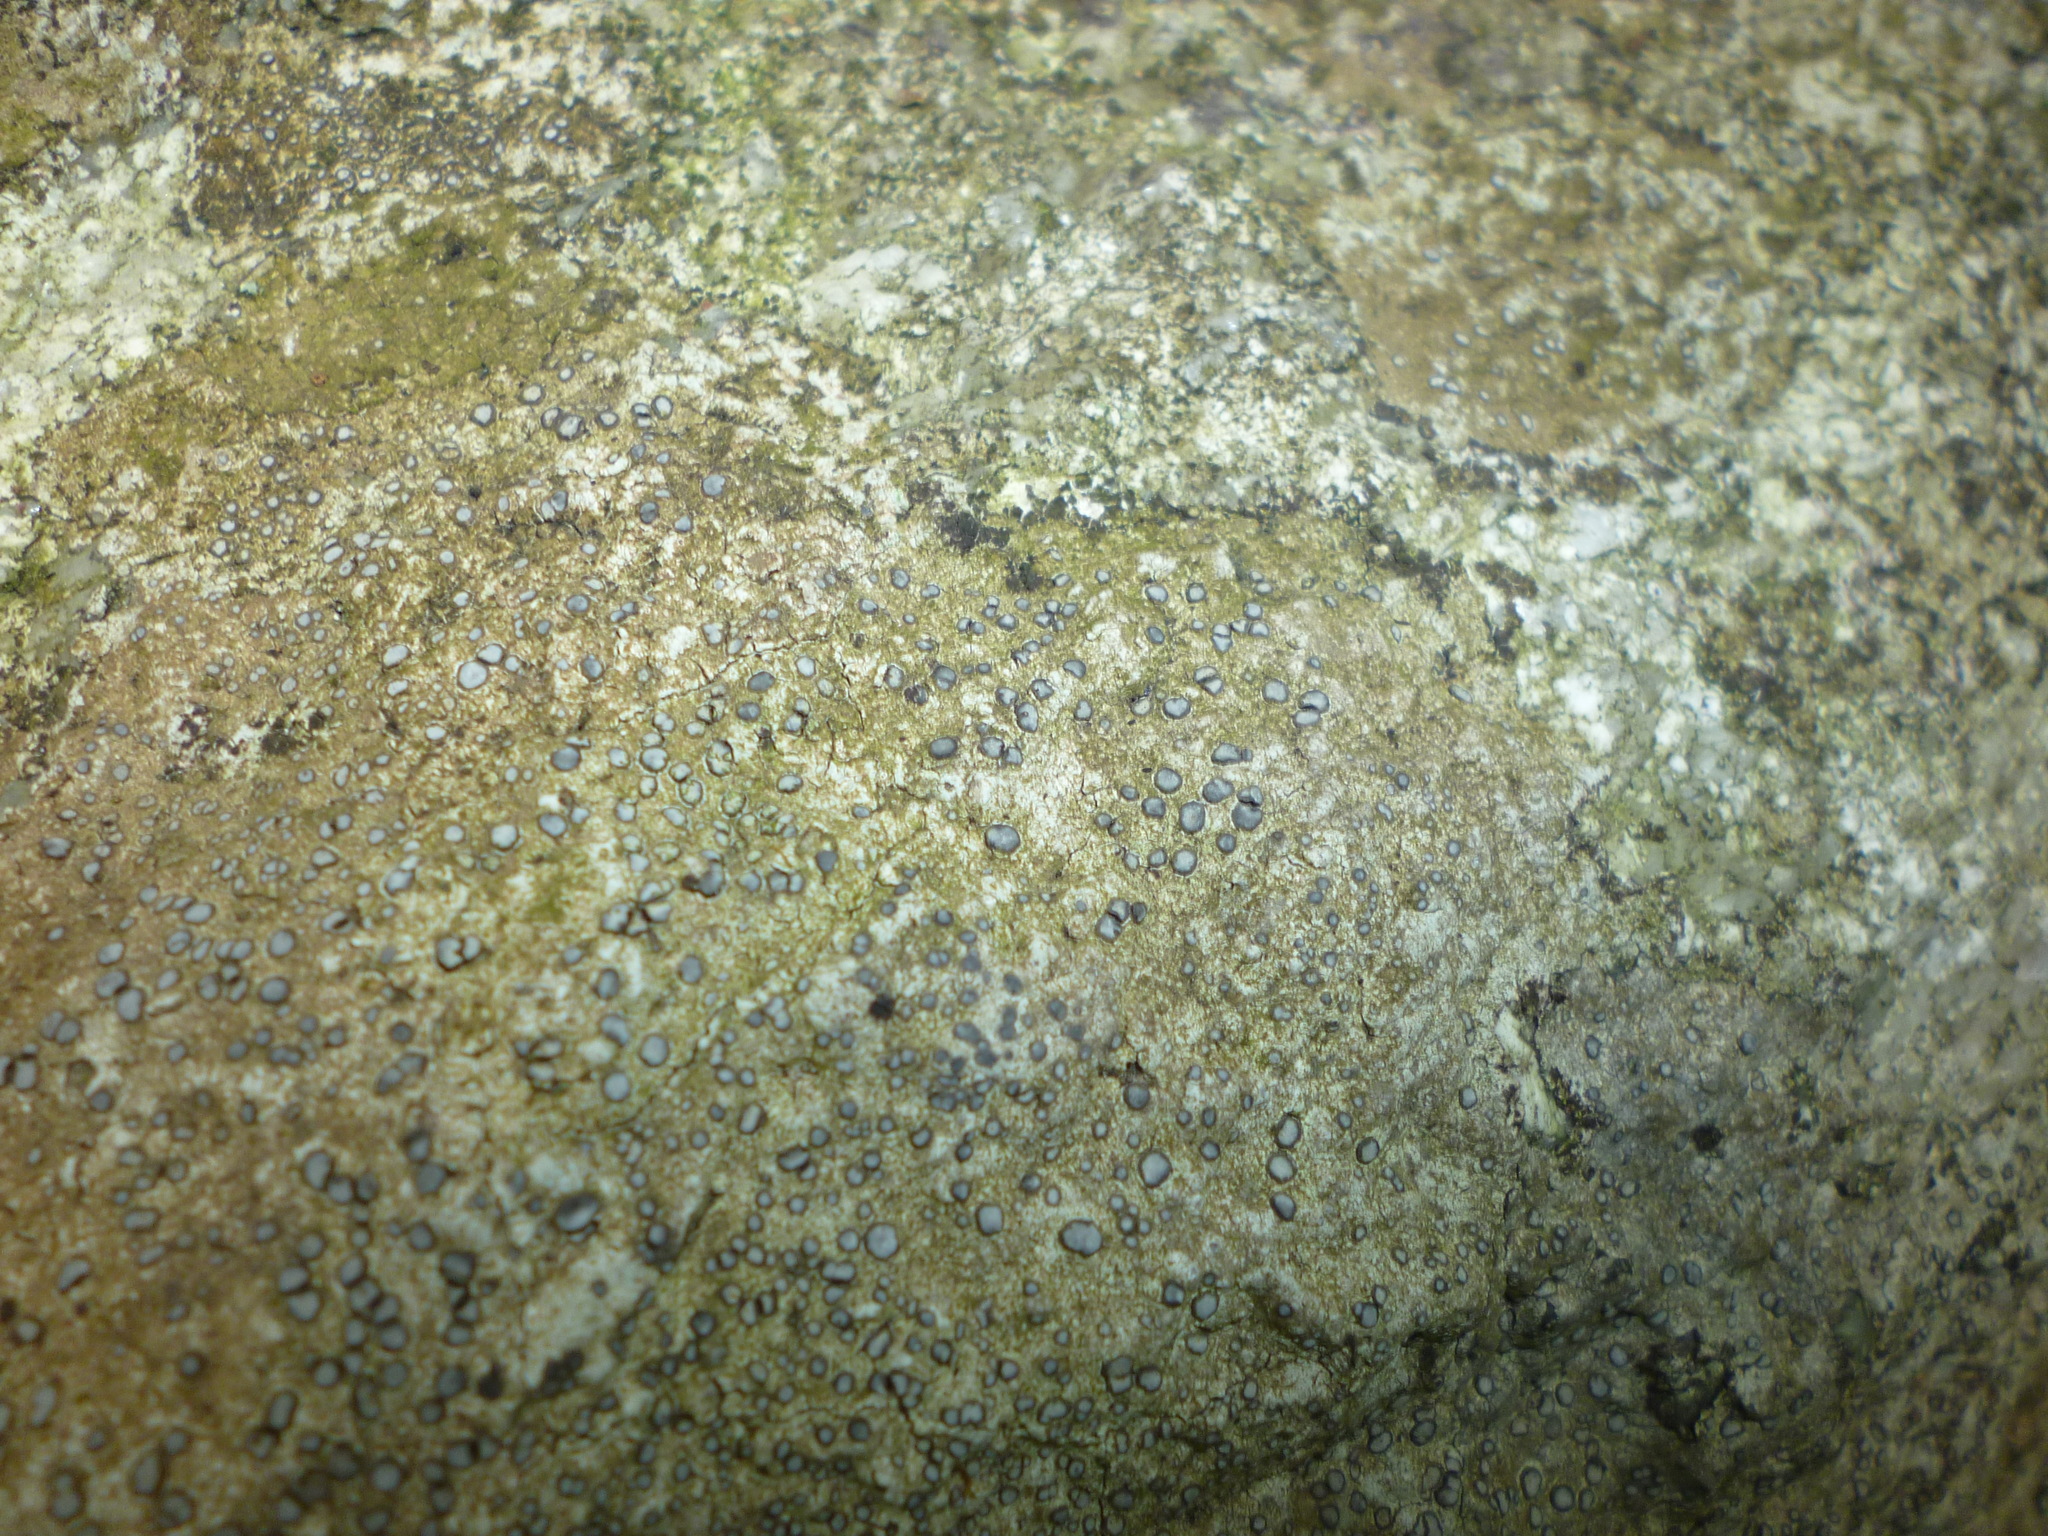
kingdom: Fungi
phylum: Ascomycota
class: Lecanoromycetes
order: Lecideales
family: Lecideaceae
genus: Porpidia
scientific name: Porpidia albocaerulescens
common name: Smokey-eyed boulder lichen
